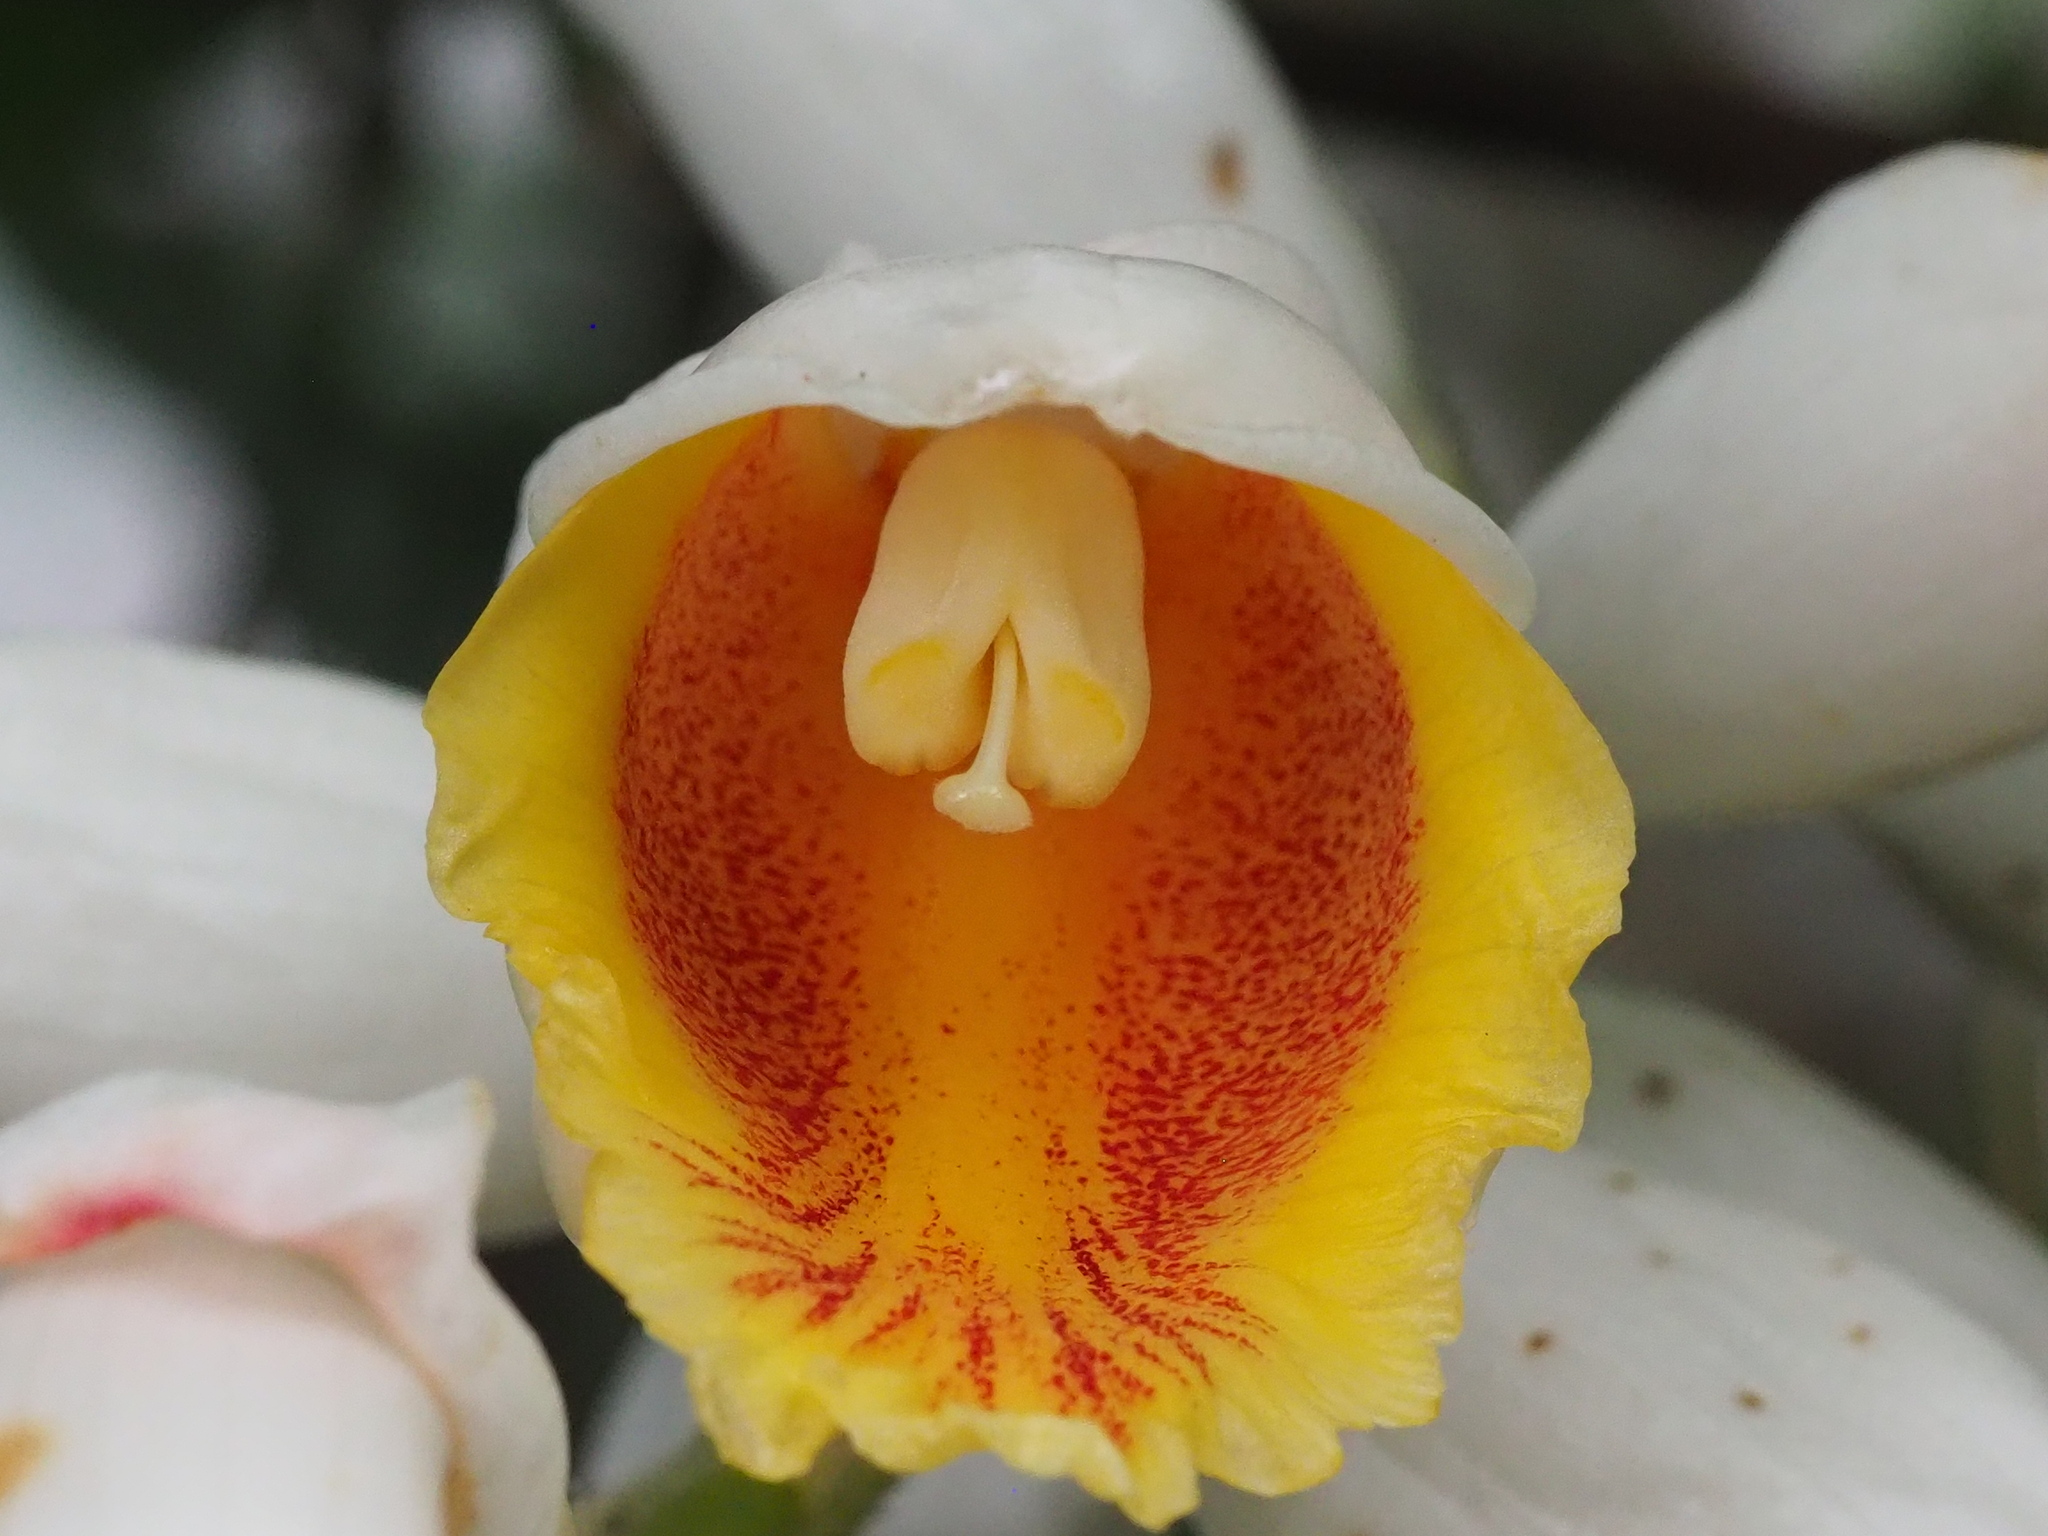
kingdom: Plantae
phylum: Tracheophyta
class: Liliopsida
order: Zingiberales
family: Zingiberaceae
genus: Alpinia
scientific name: Alpinia uraiensis
